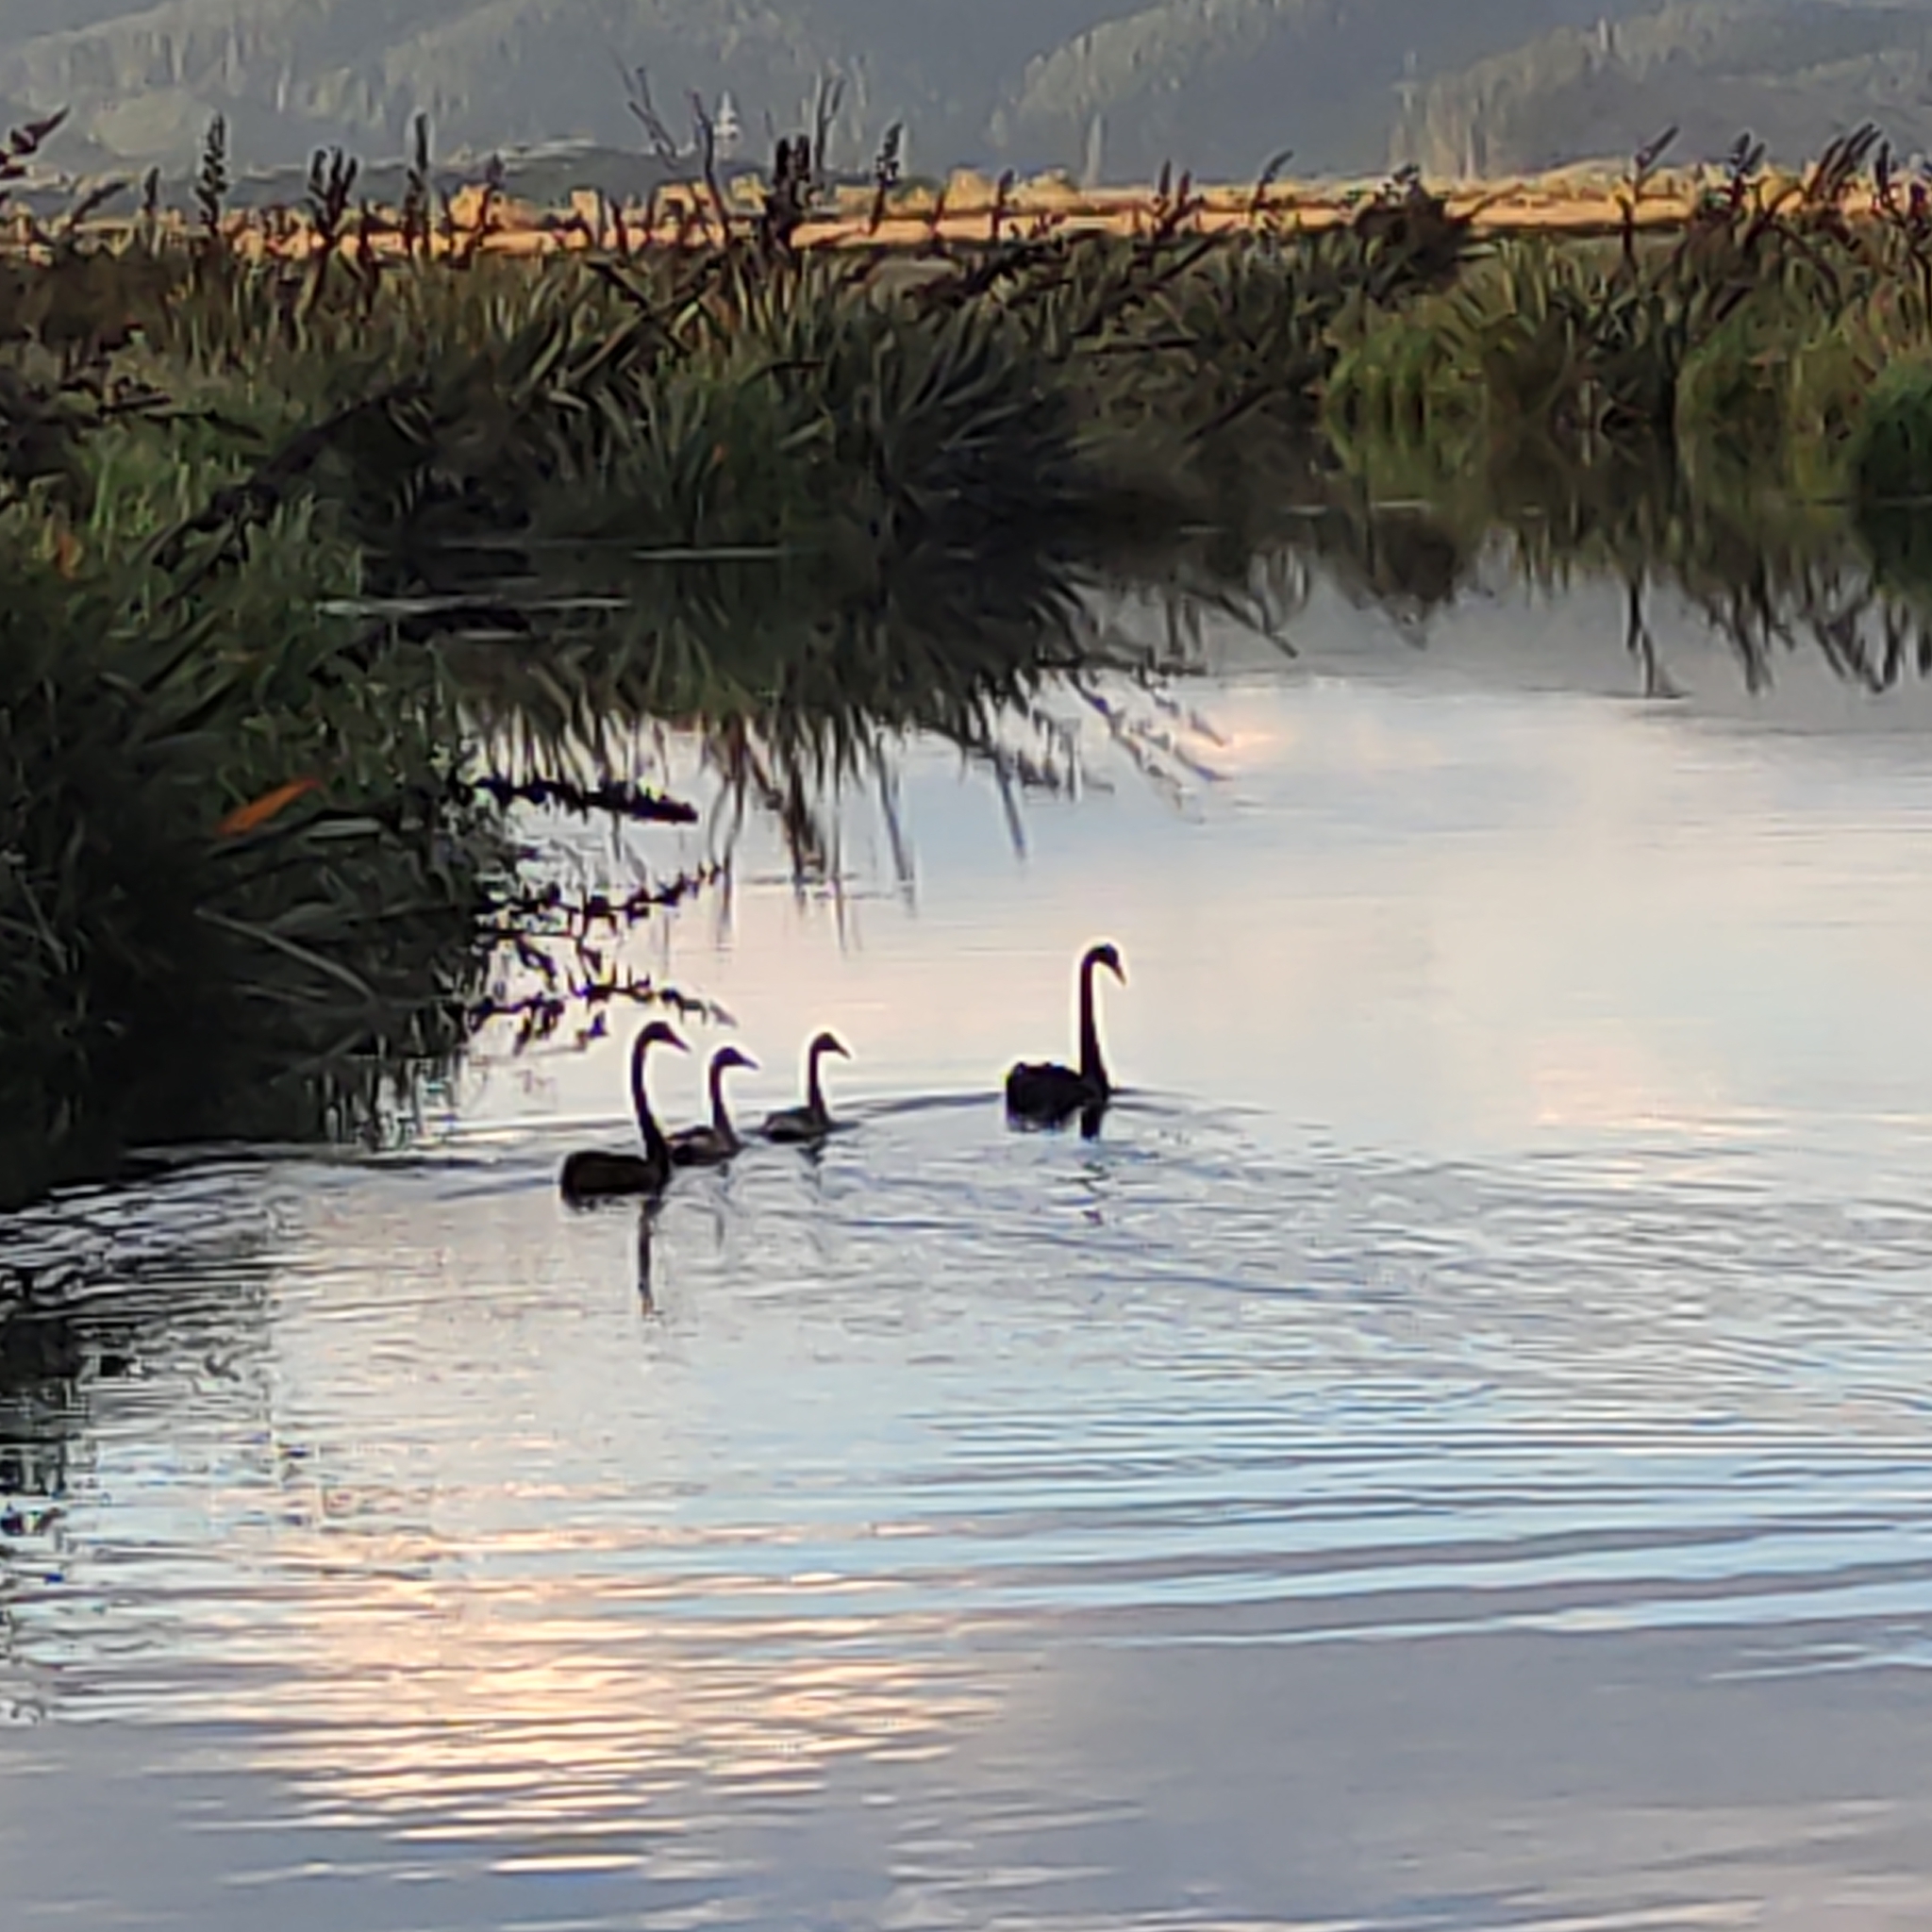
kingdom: Animalia
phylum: Chordata
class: Aves
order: Anseriformes
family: Anatidae
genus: Cygnus
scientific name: Cygnus atratus
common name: Black swan
